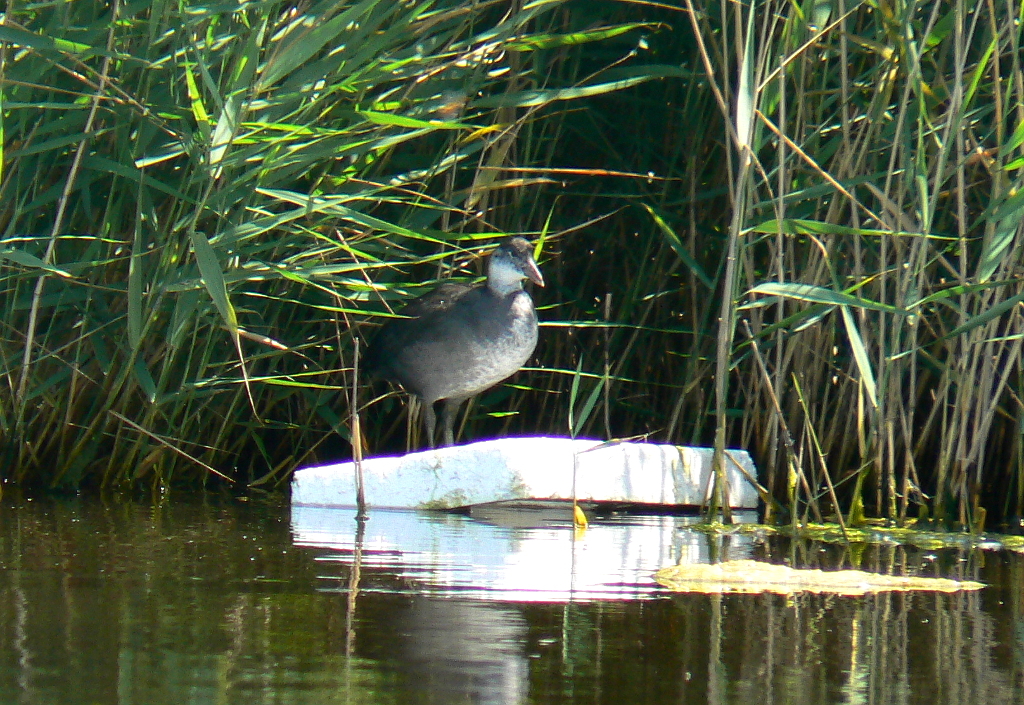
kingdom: Animalia
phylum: Chordata
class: Aves
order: Gruiformes
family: Rallidae
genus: Fulica
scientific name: Fulica atra
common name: Eurasian coot
